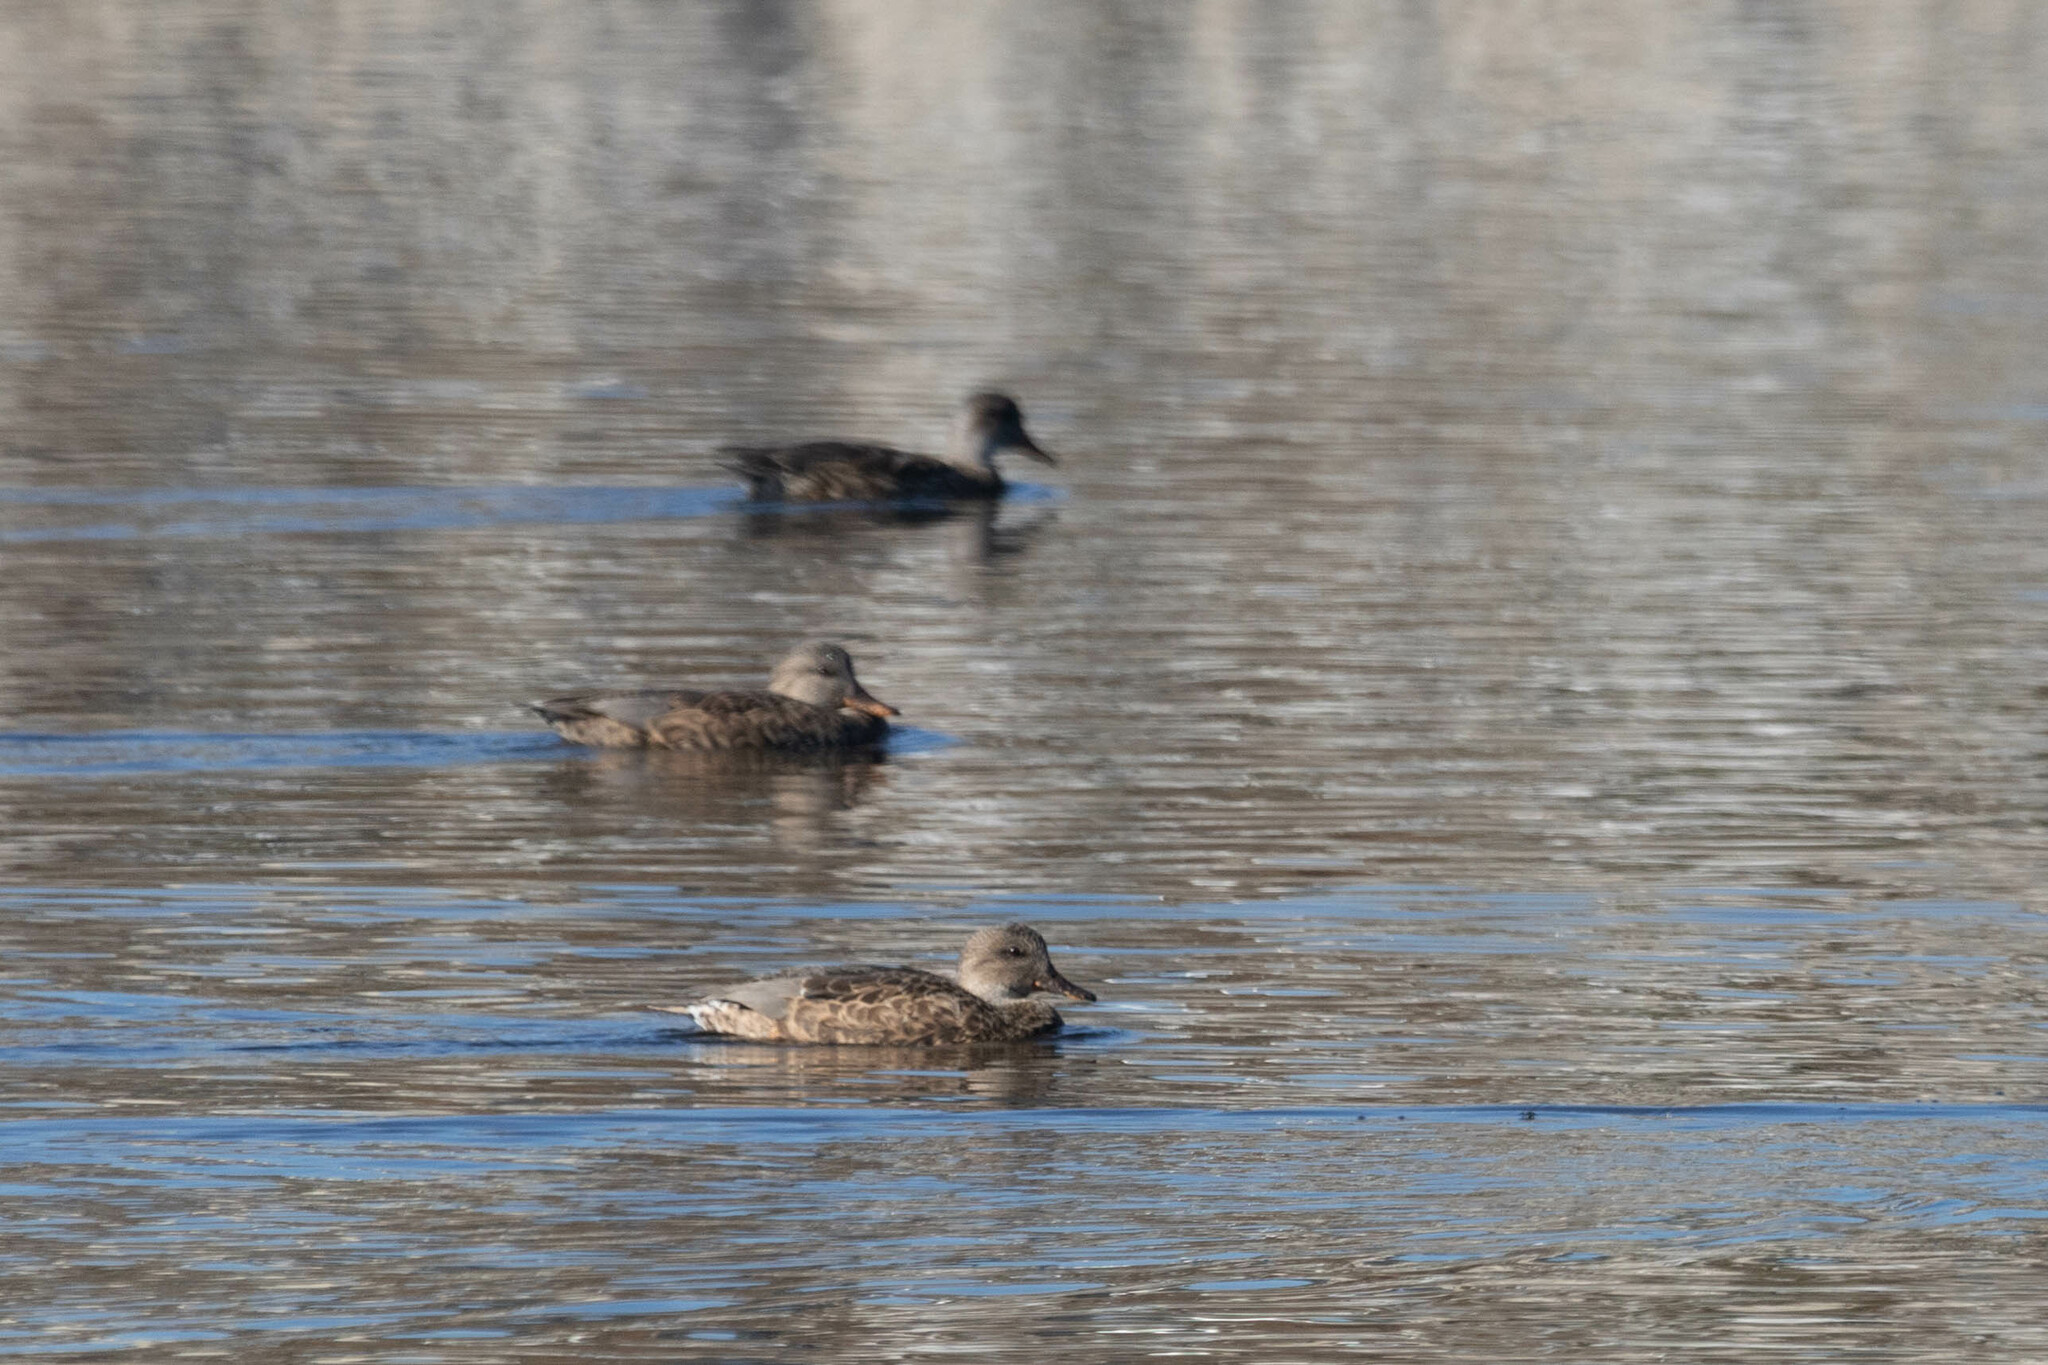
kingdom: Animalia
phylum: Chordata
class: Aves
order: Anseriformes
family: Anatidae
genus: Mareca
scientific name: Mareca strepera
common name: Gadwall
